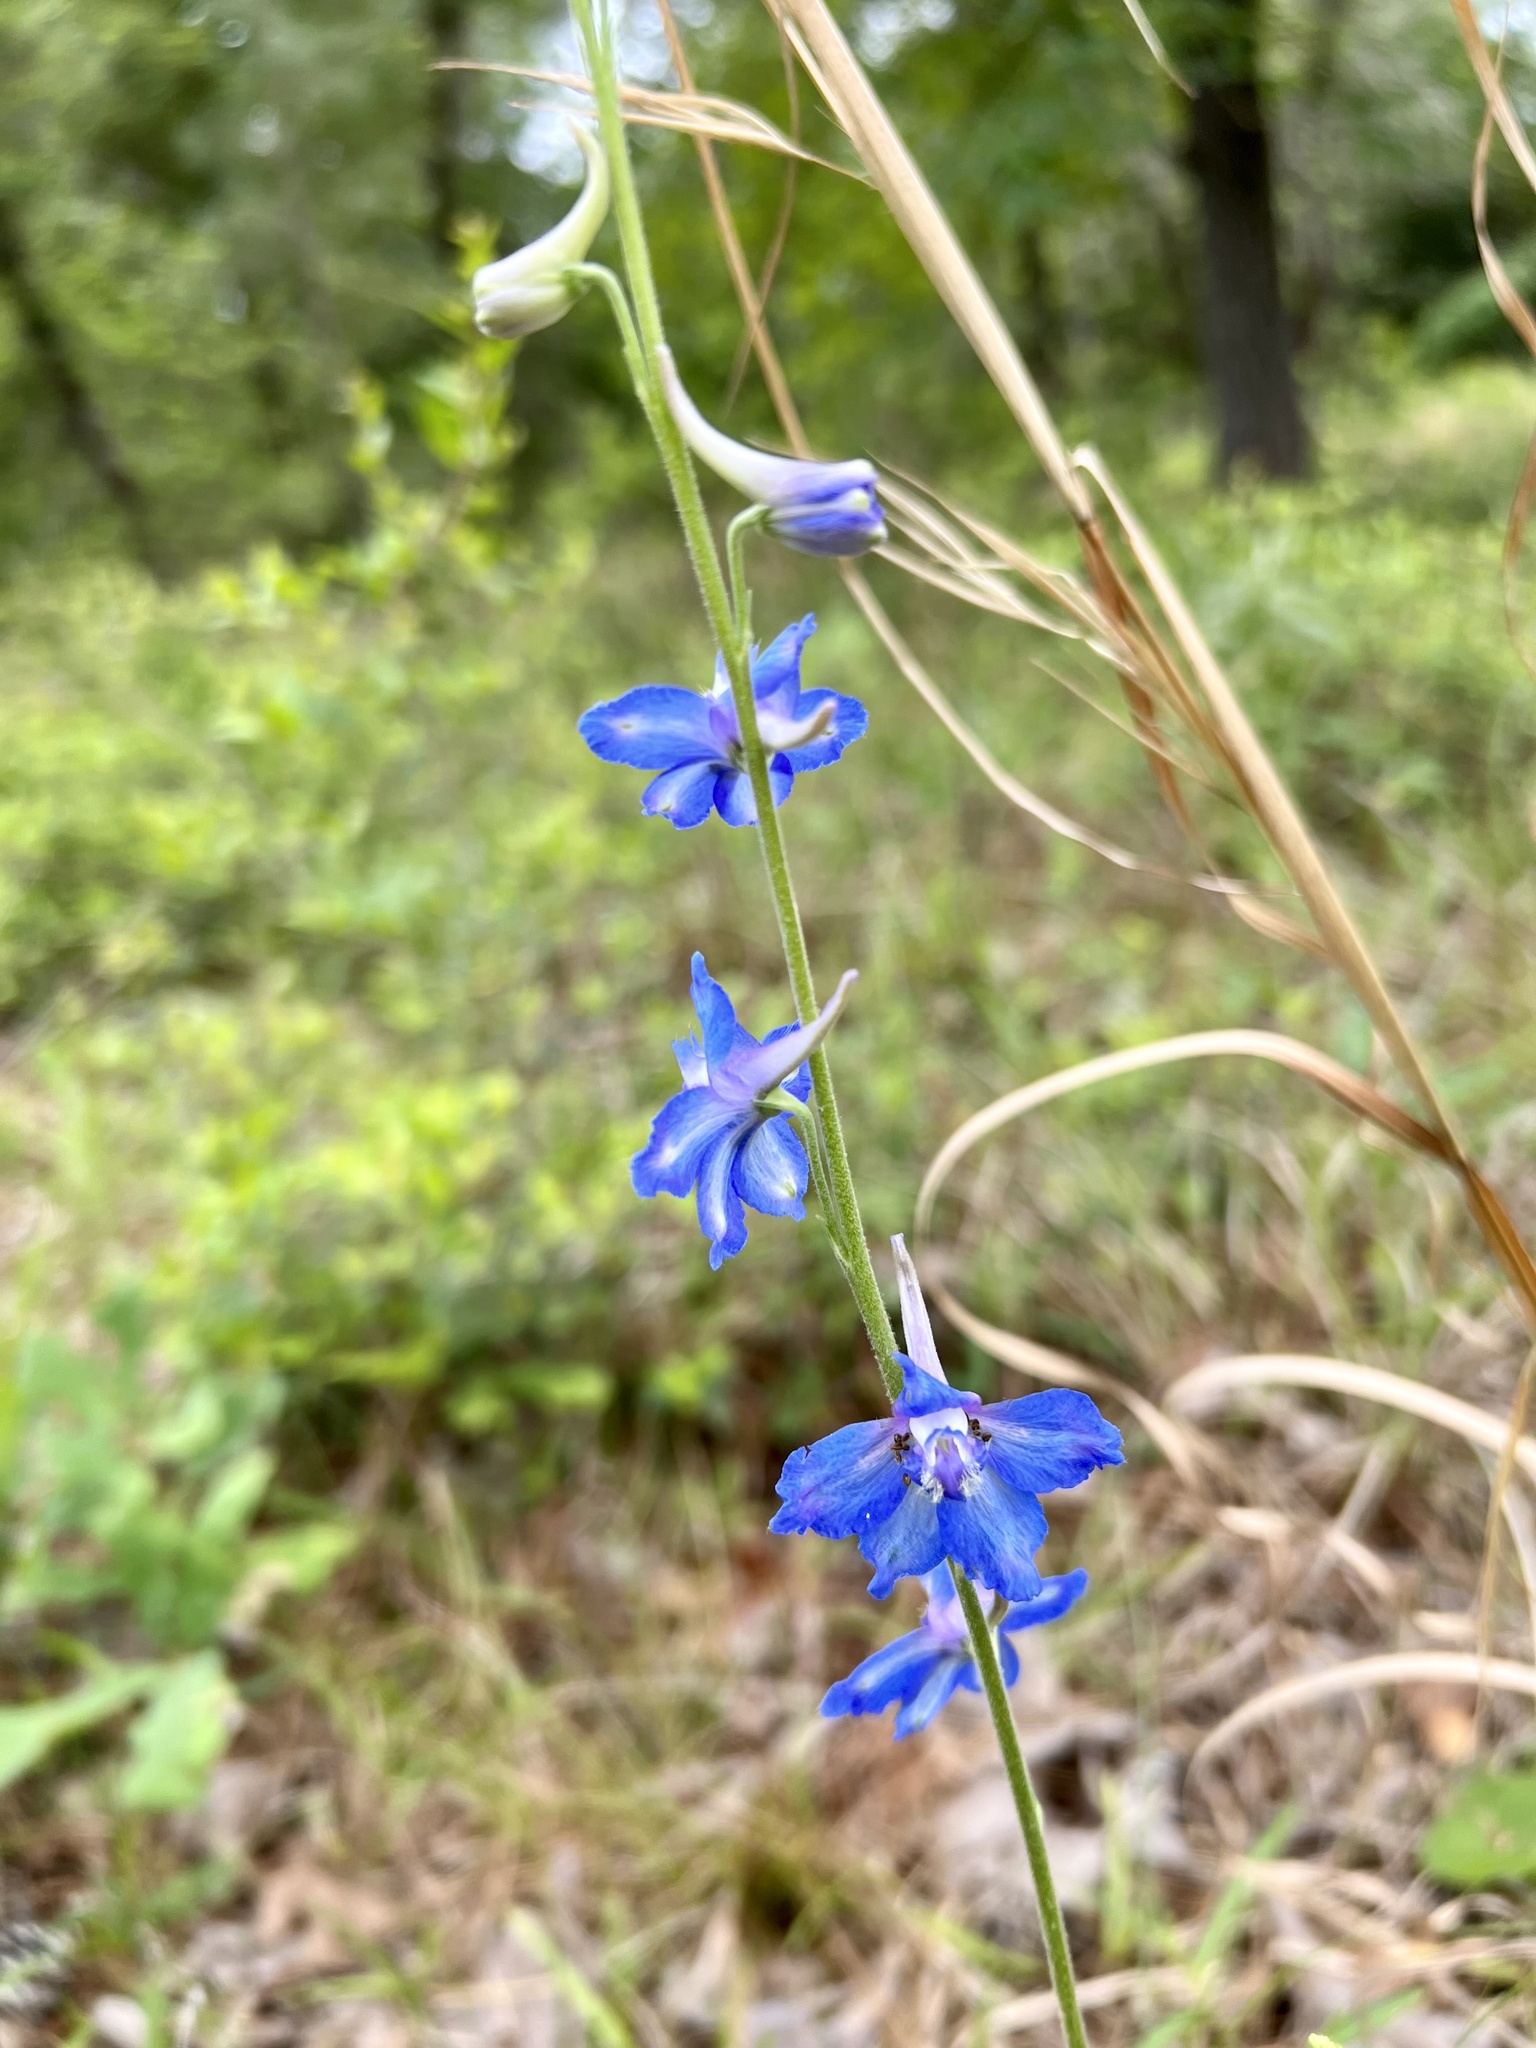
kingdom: Plantae
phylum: Tracheophyta
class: Magnoliopsida
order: Ranunculales
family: Ranunculaceae
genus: Delphinium
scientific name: Delphinium carolinianum
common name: Carolina larkspur
